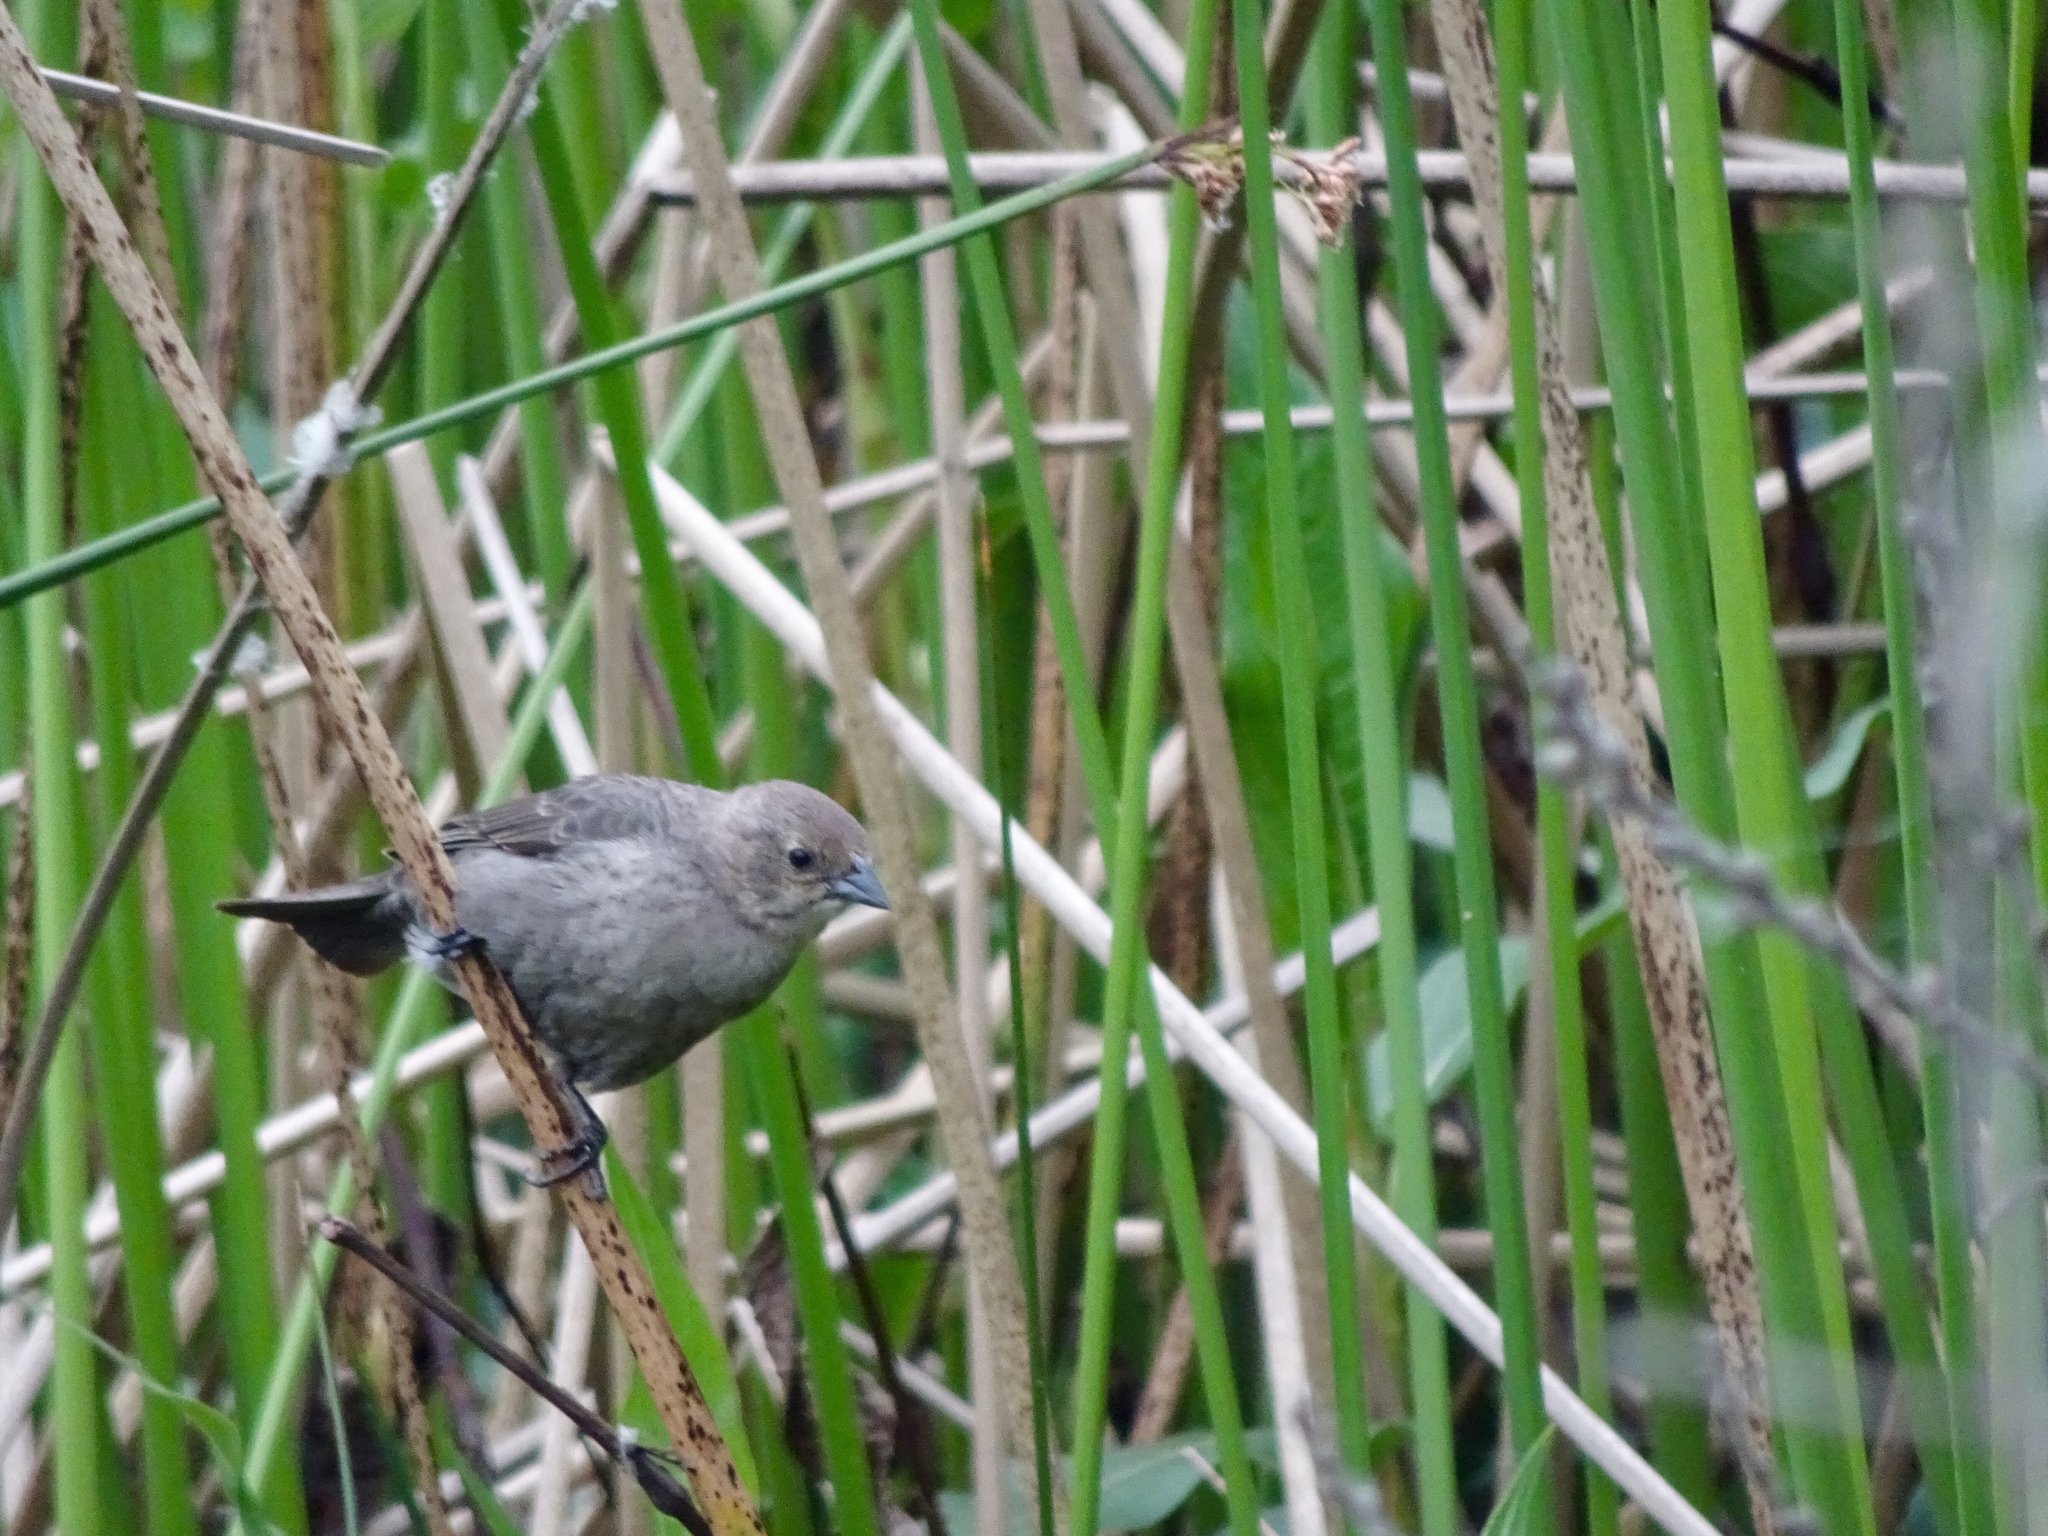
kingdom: Animalia
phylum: Chordata
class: Aves
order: Passeriformes
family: Icteridae
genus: Molothrus
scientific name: Molothrus ater
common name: Brown-headed cowbird
